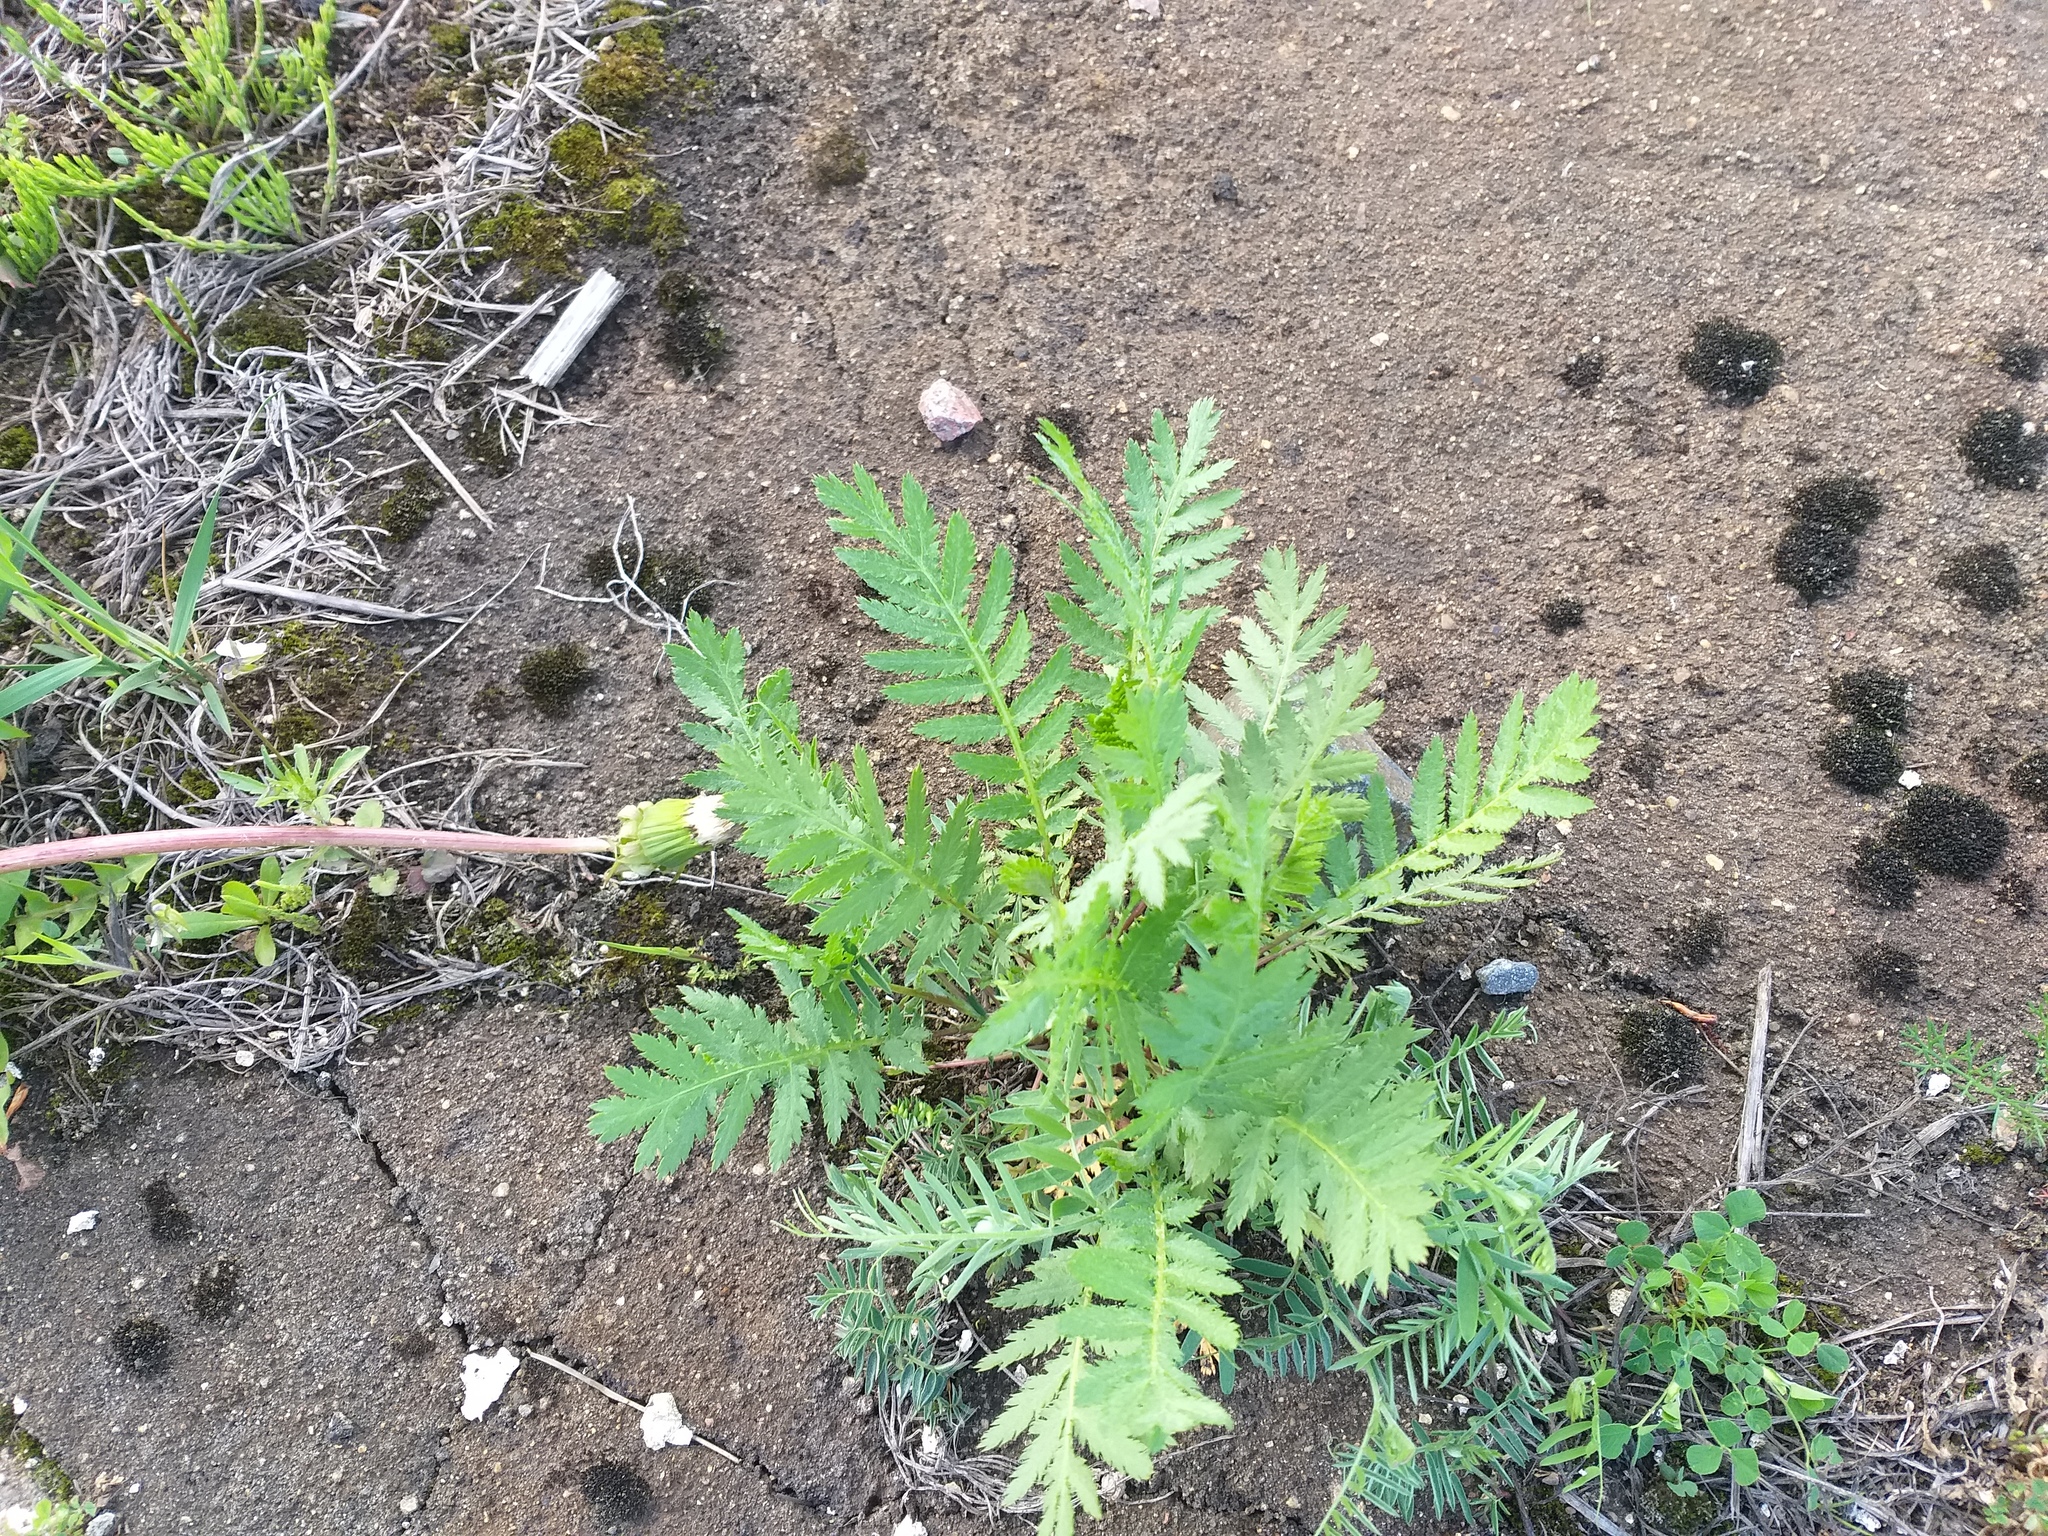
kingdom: Plantae
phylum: Tracheophyta
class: Magnoliopsida
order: Asterales
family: Asteraceae
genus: Tanacetum
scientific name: Tanacetum vulgare
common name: Common tansy
